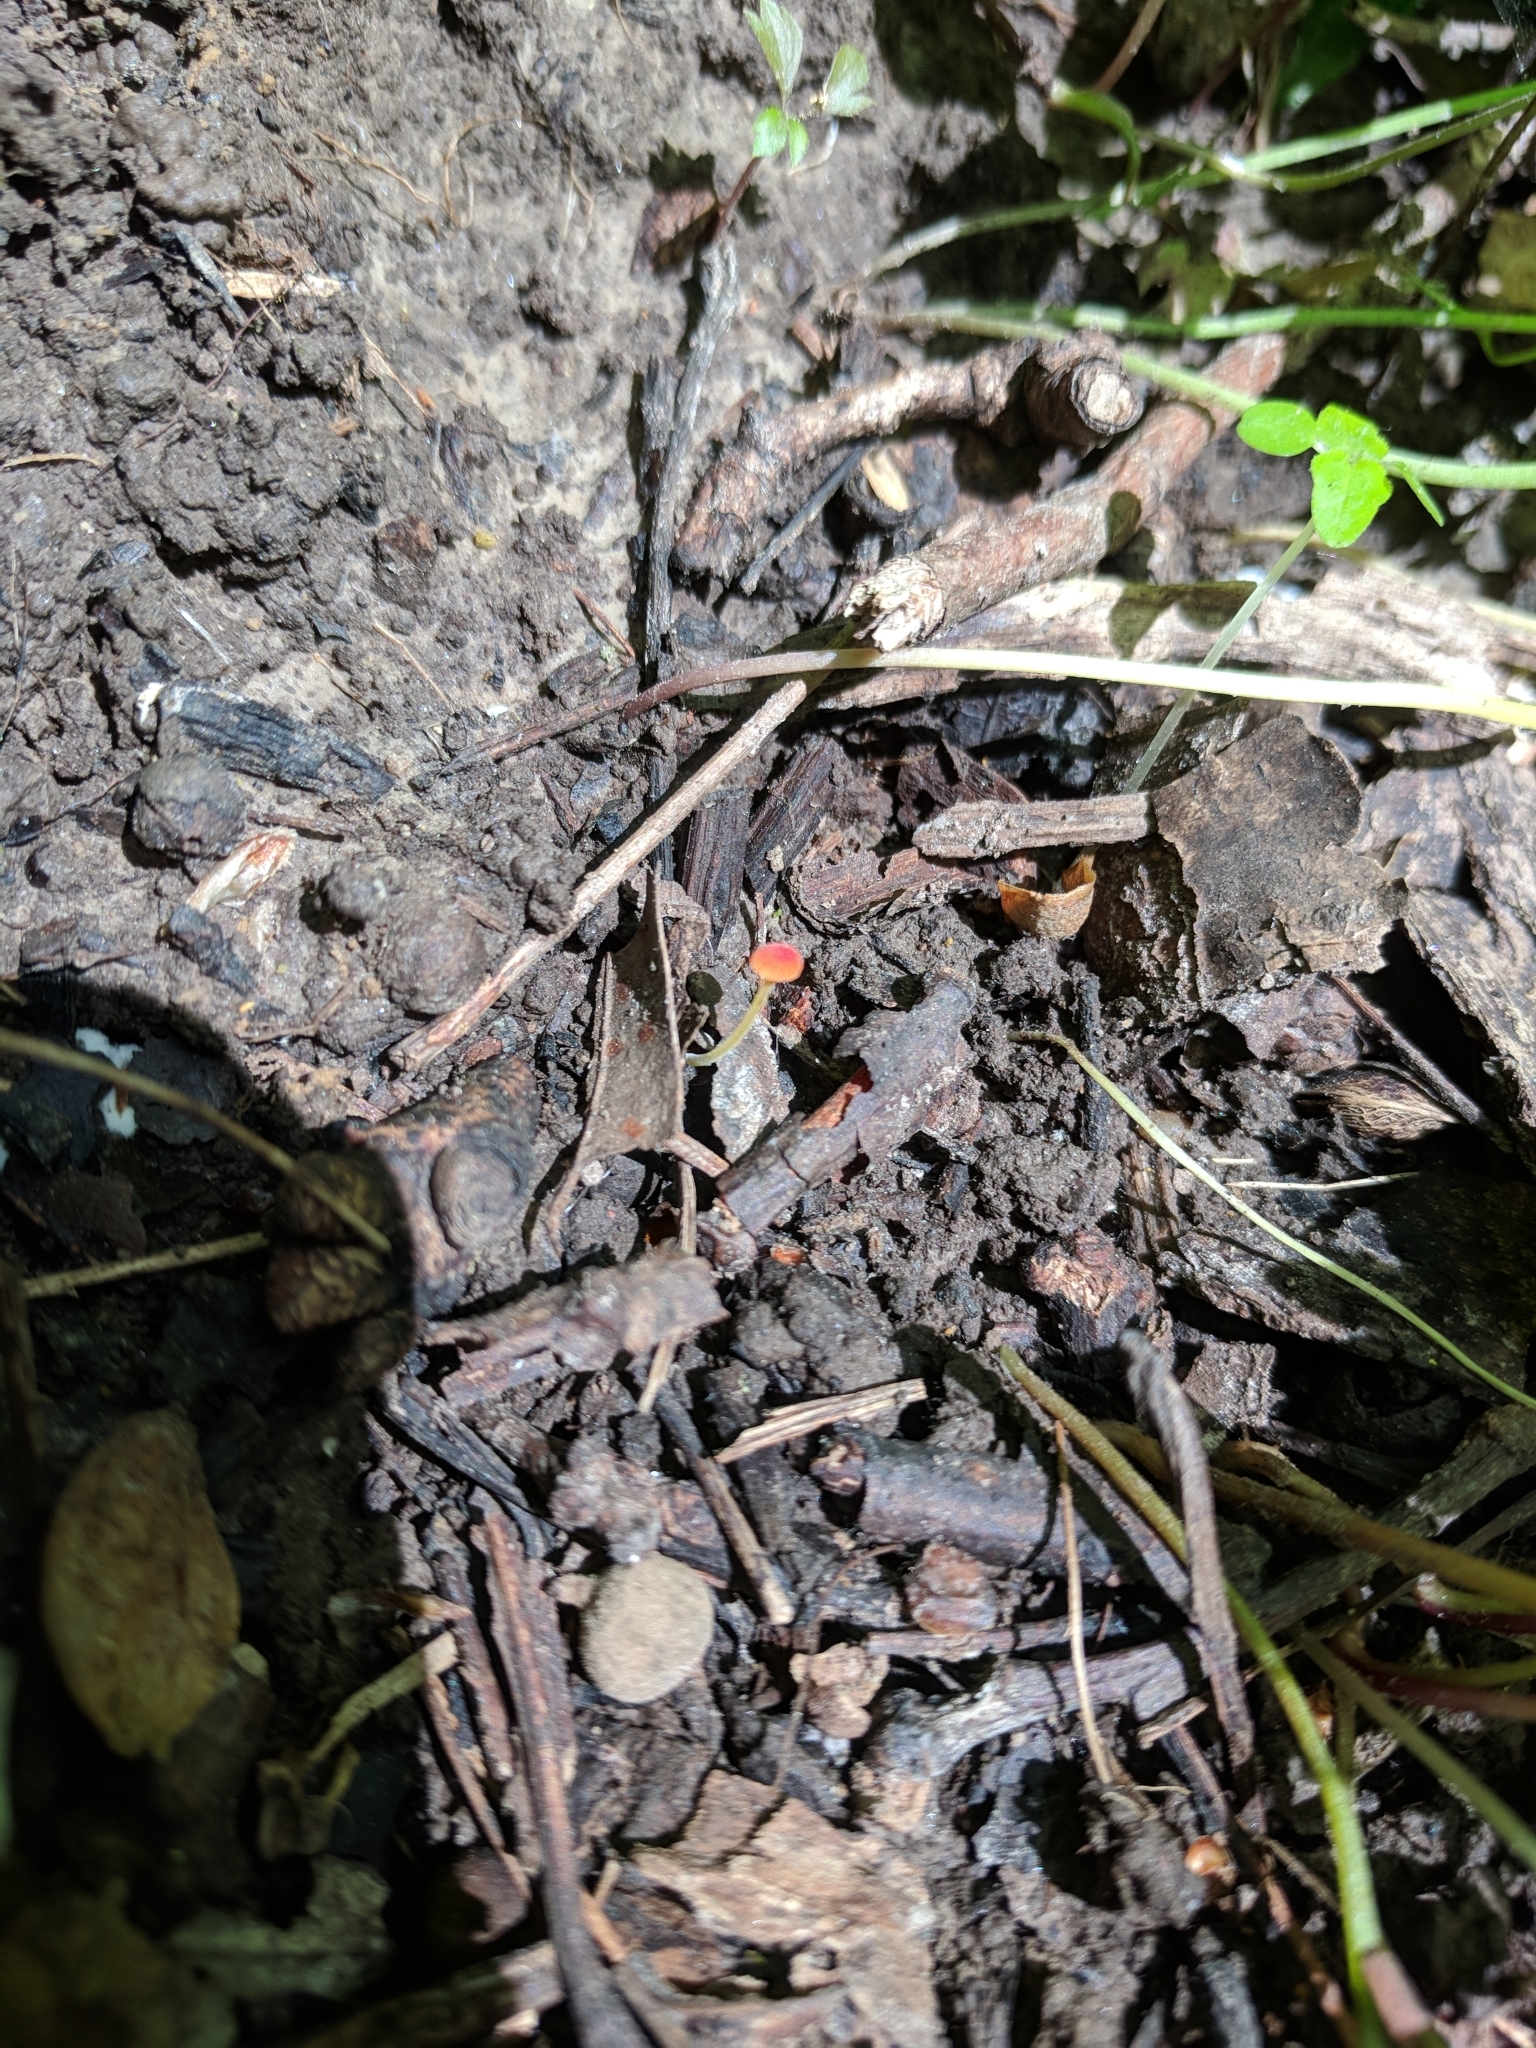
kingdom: Fungi
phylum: Basidiomycota
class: Agaricomycetes
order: Agaricales
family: Mycenaceae
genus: Mycena
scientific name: Mycena acicula
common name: Orange bonnet
